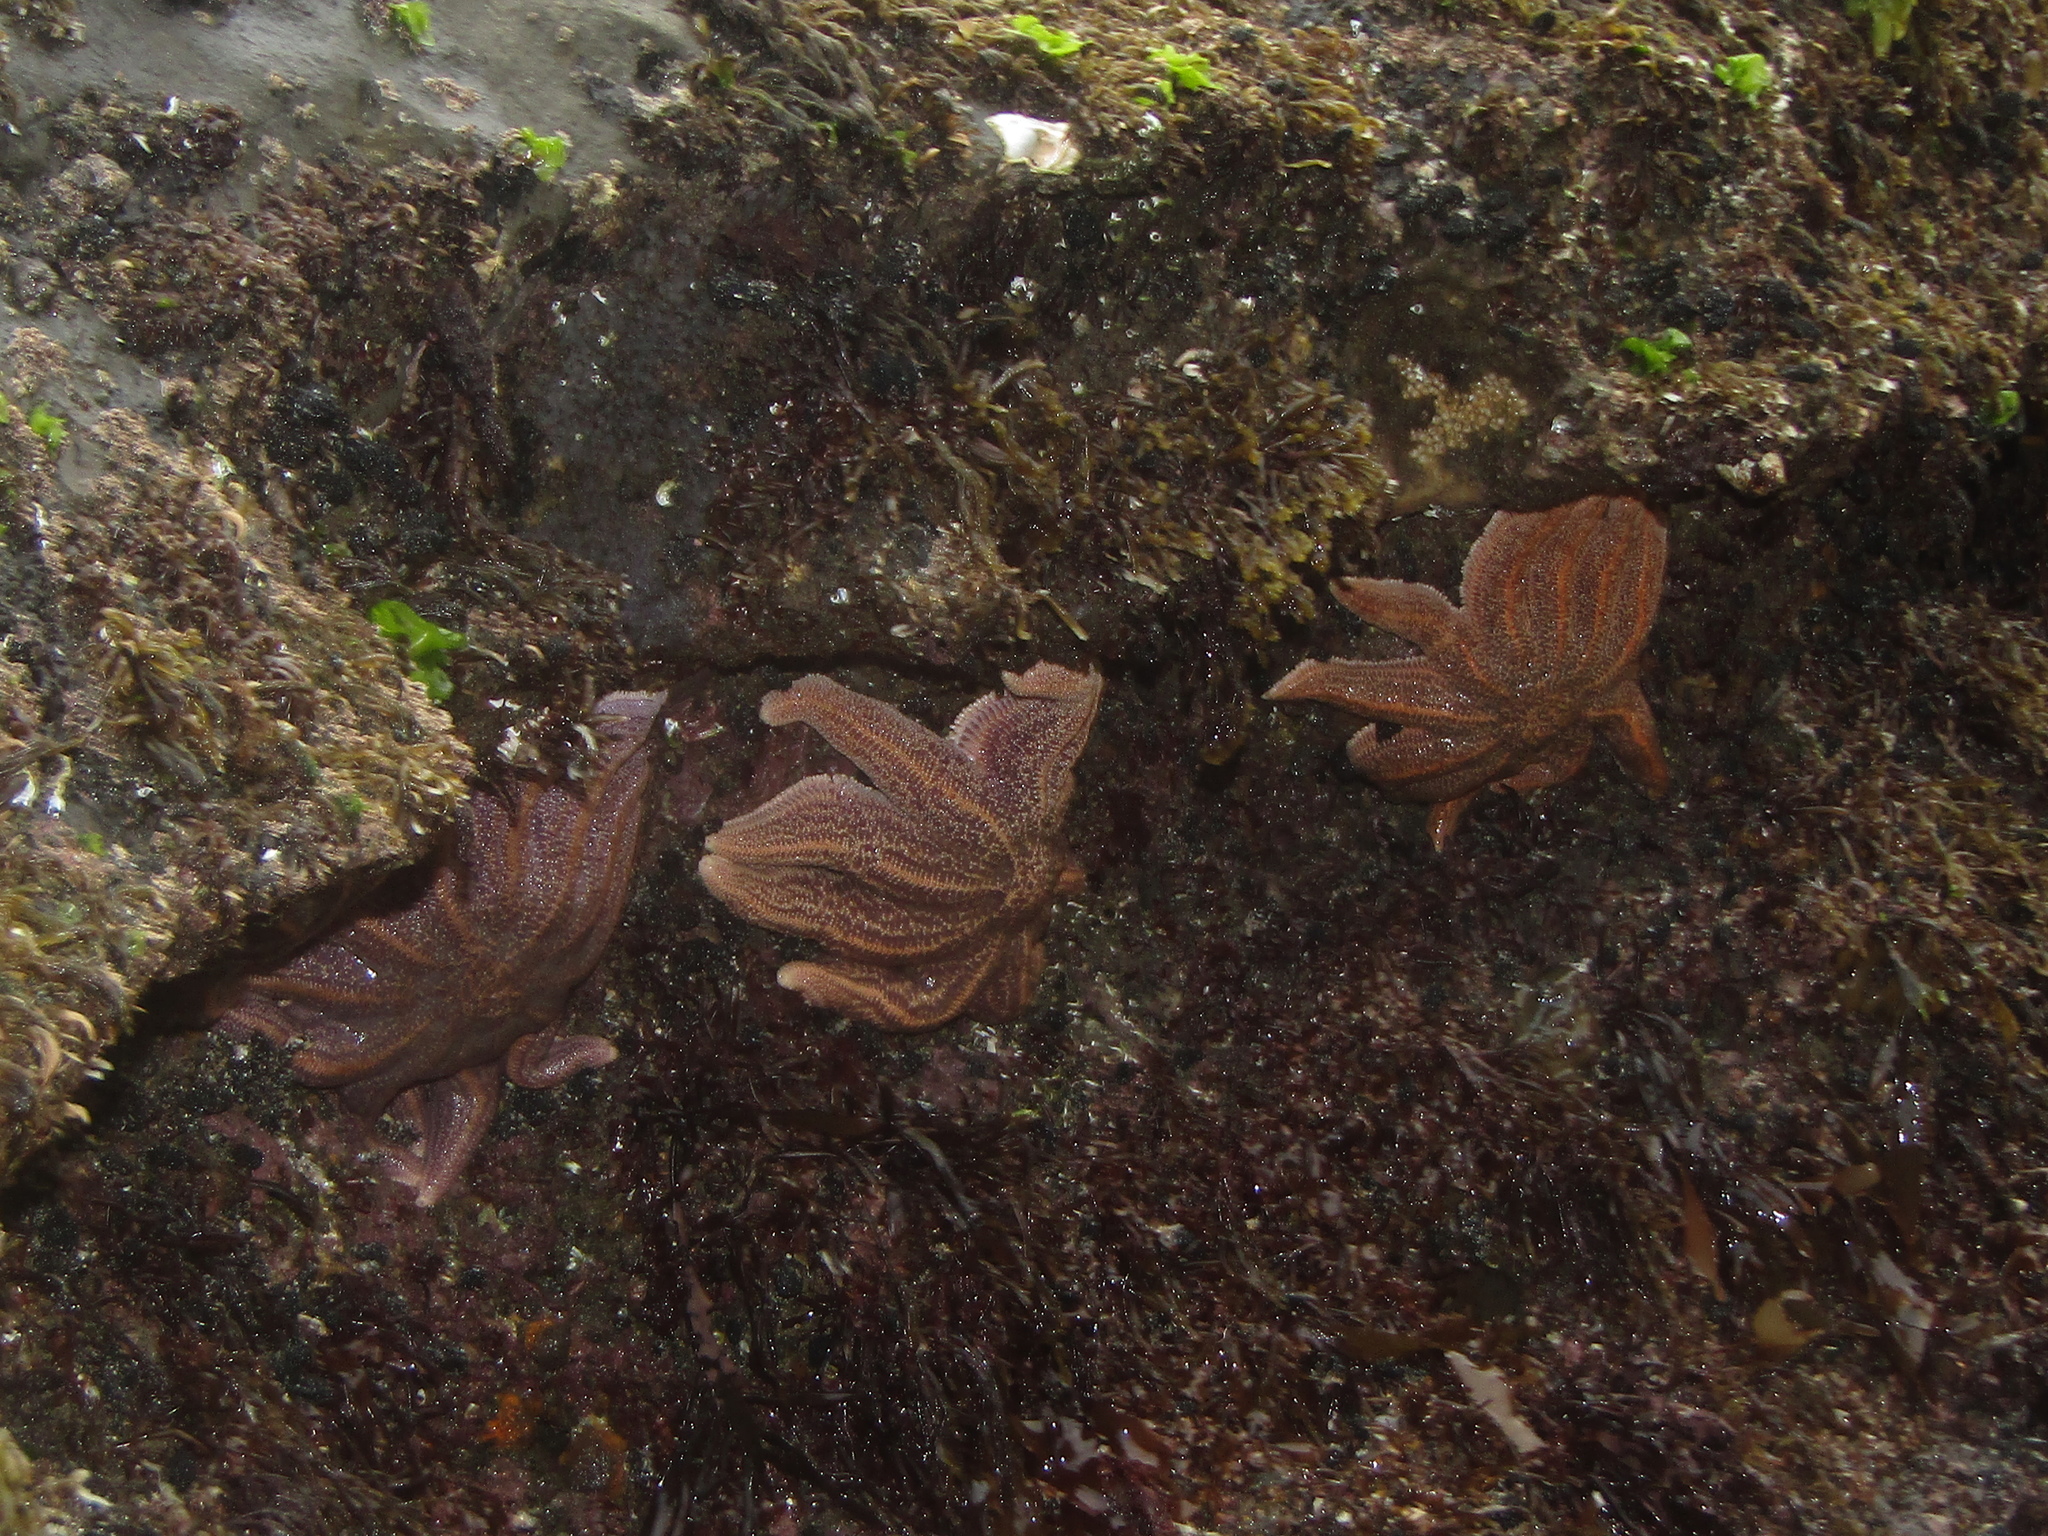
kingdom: Animalia
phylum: Echinodermata
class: Asteroidea
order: Forcipulatida
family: Stichasteridae
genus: Stichaster
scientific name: Stichaster australis
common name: Reef starfish
